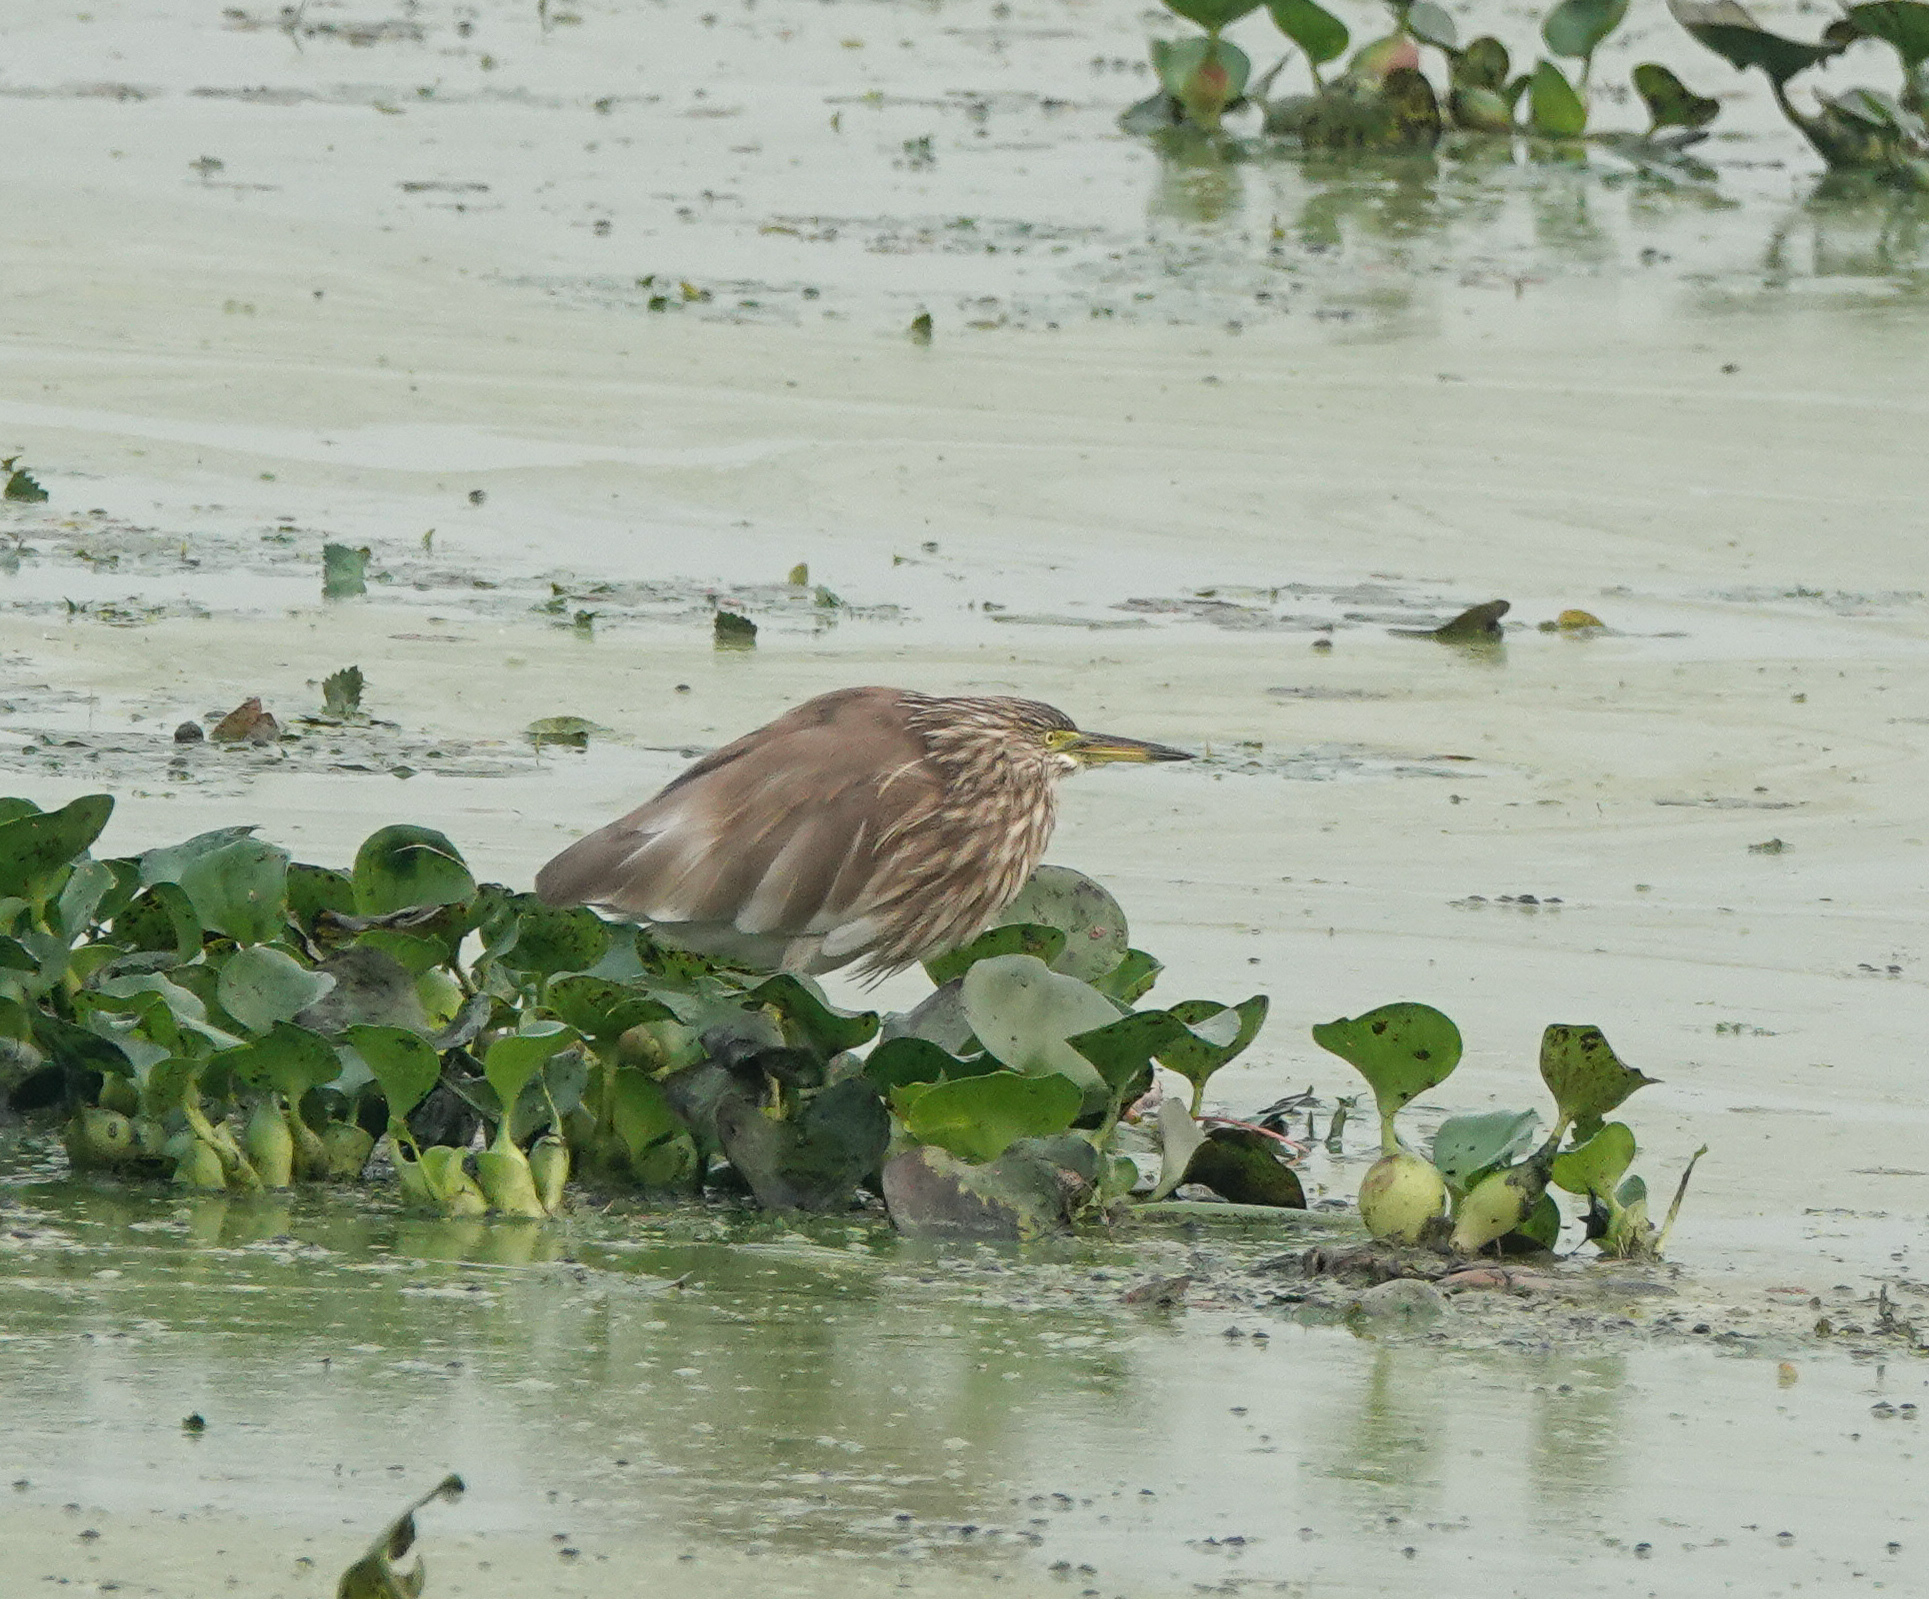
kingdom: Animalia
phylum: Chordata
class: Aves
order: Pelecaniformes
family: Ardeidae
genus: Ardeola
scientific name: Ardeola grayii
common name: Indian pond heron
